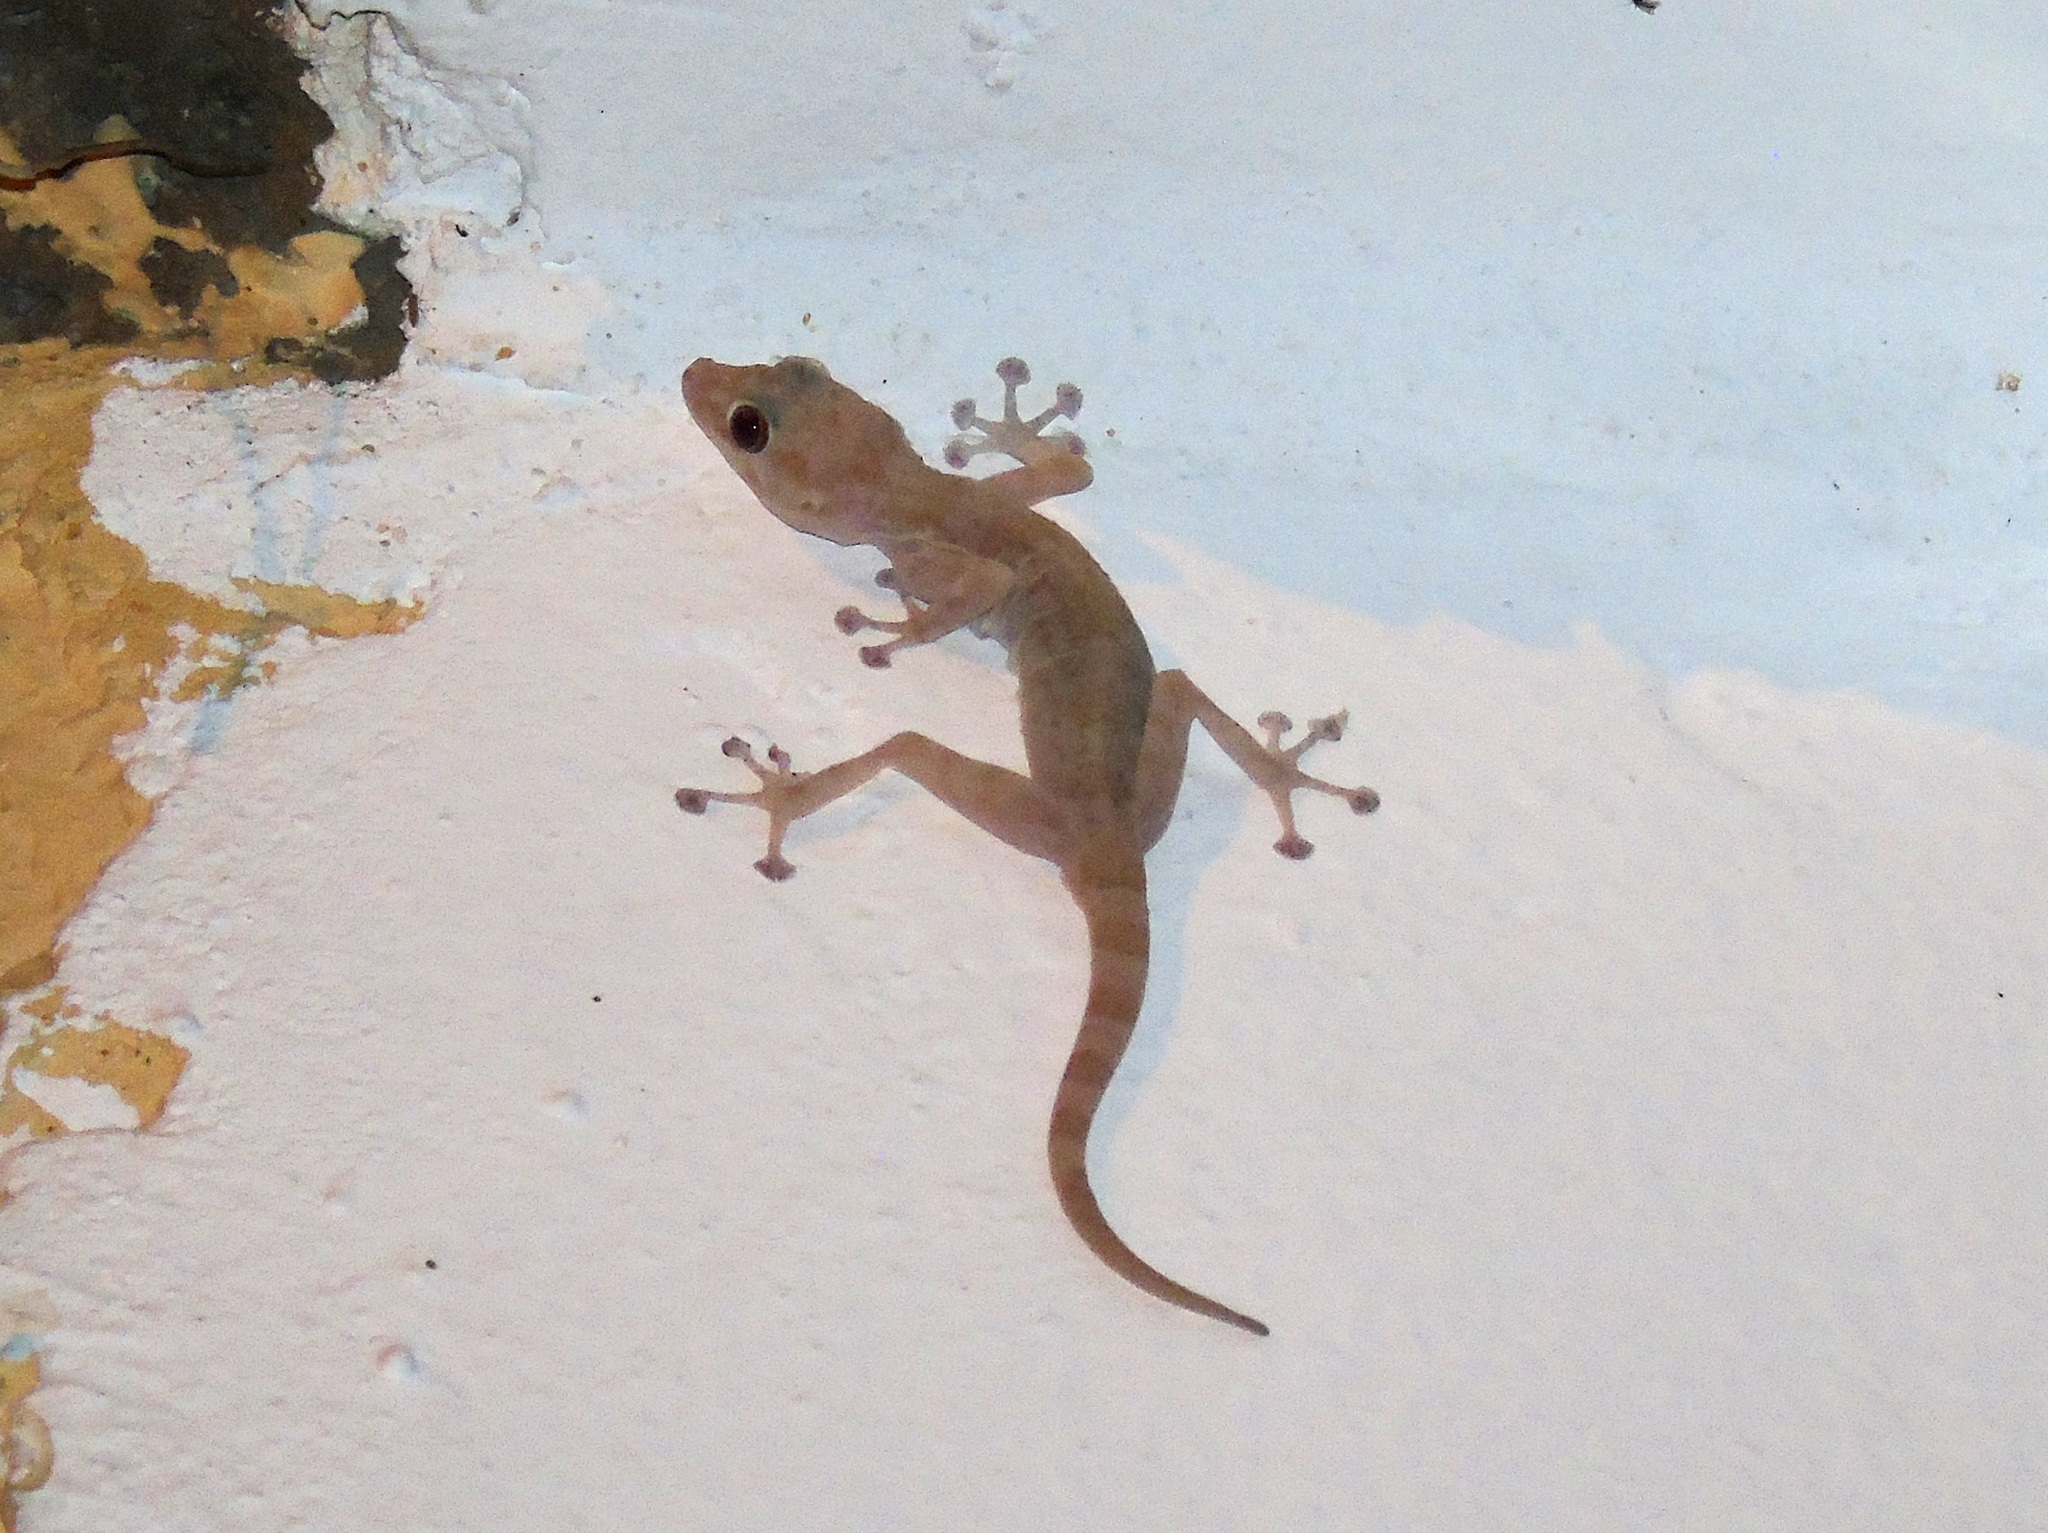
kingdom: Animalia
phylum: Chordata
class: Squamata
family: Phyllodactylidae
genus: Ptyodactylus
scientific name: Ptyodactylus hasselquistii
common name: Hasselquist’s fan-footed gecko
